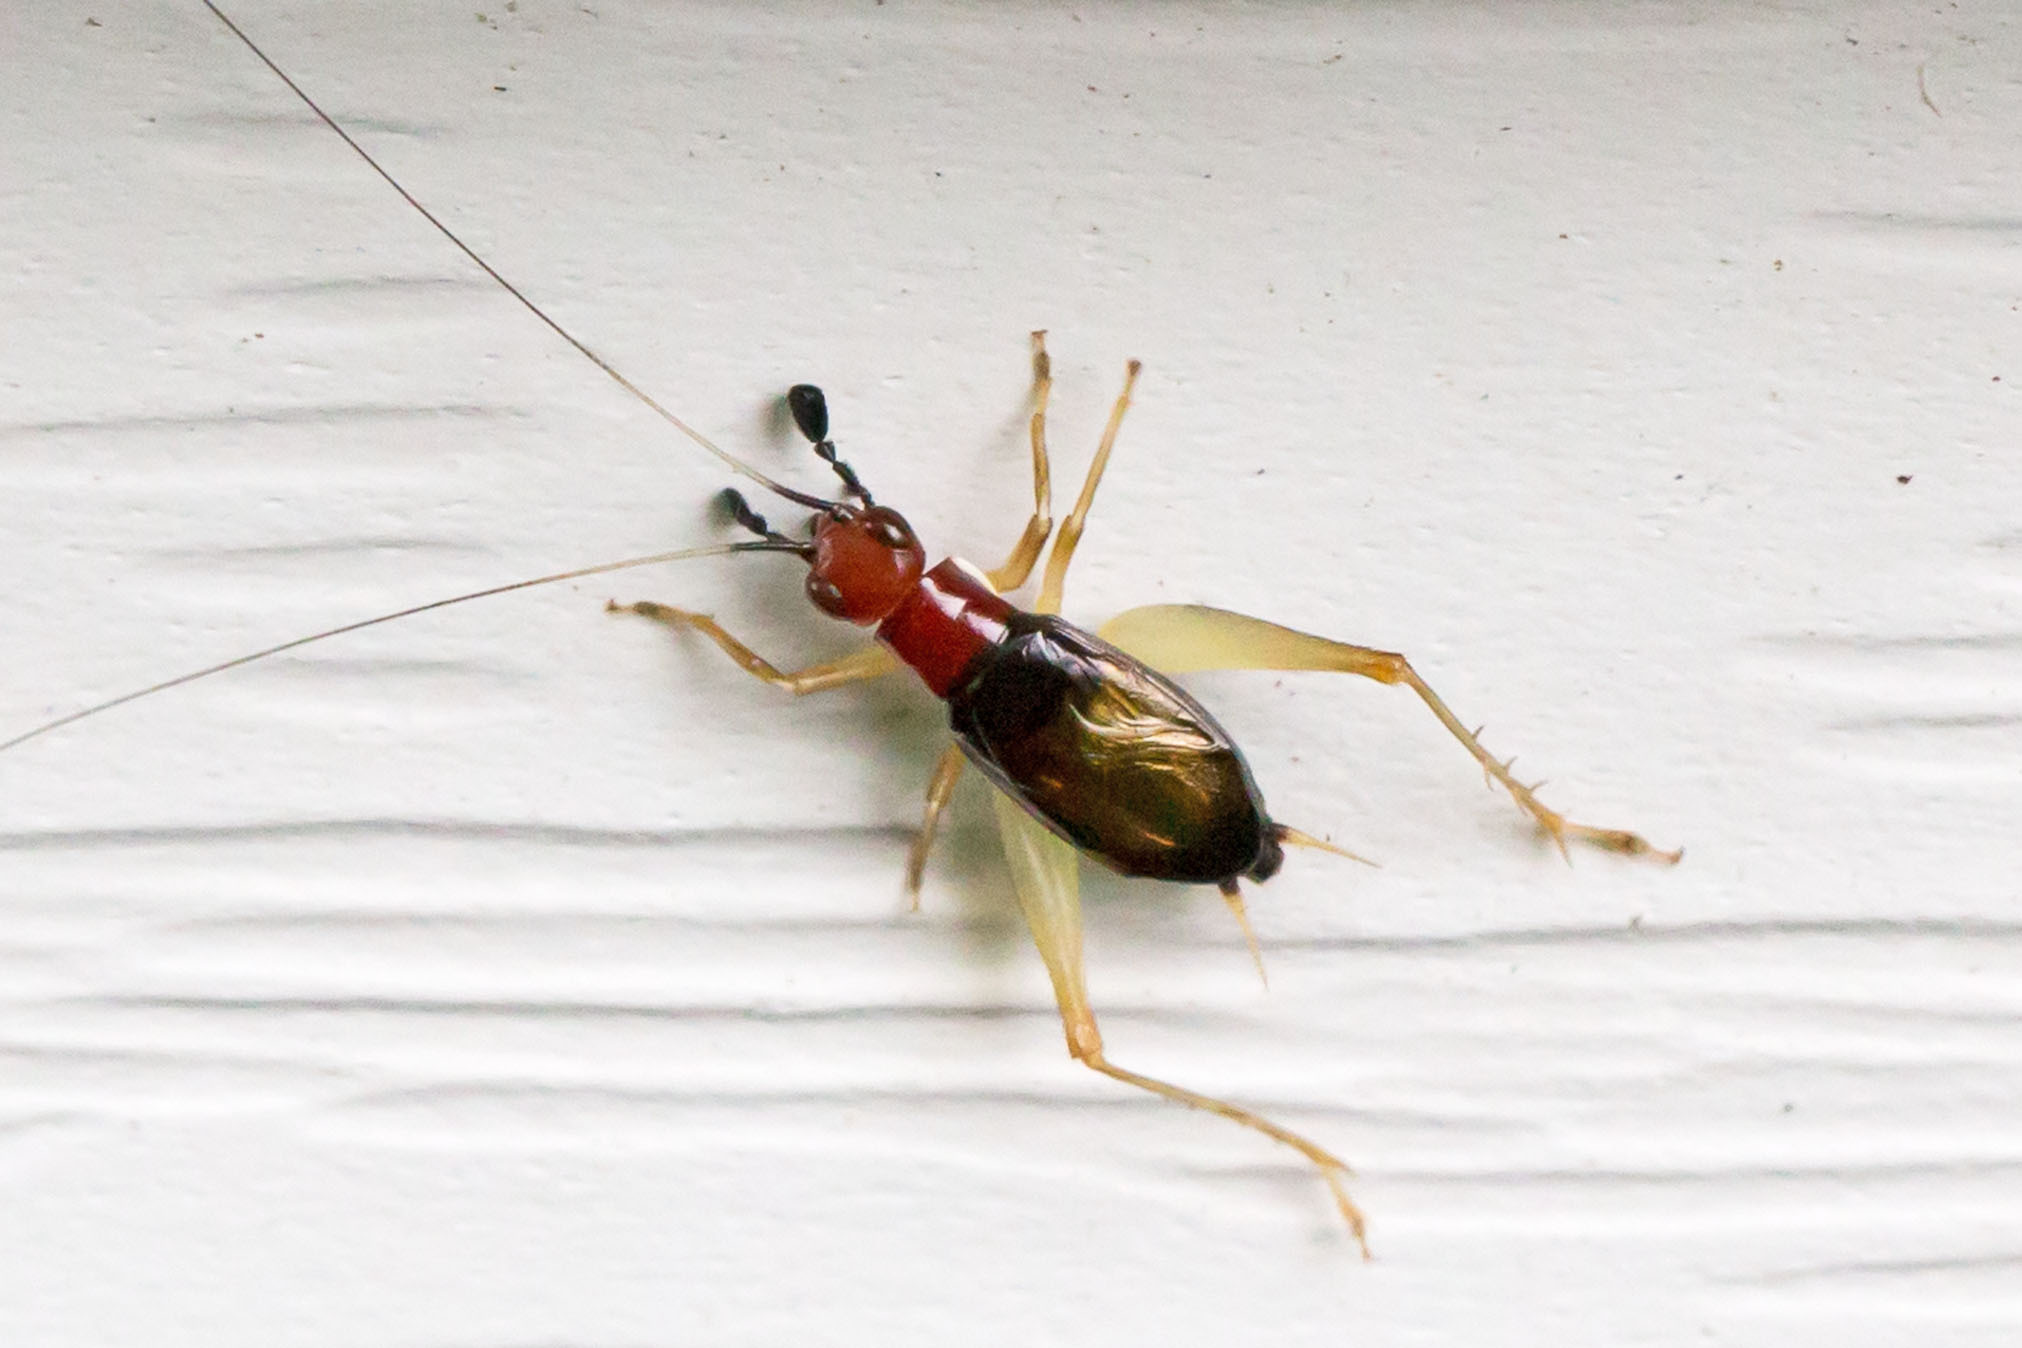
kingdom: Animalia
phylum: Arthropoda
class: Insecta
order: Orthoptera
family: Trigonidiidae
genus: Phyllopalpus
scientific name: Phyllopalpus pulchellus
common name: Handsome trig
